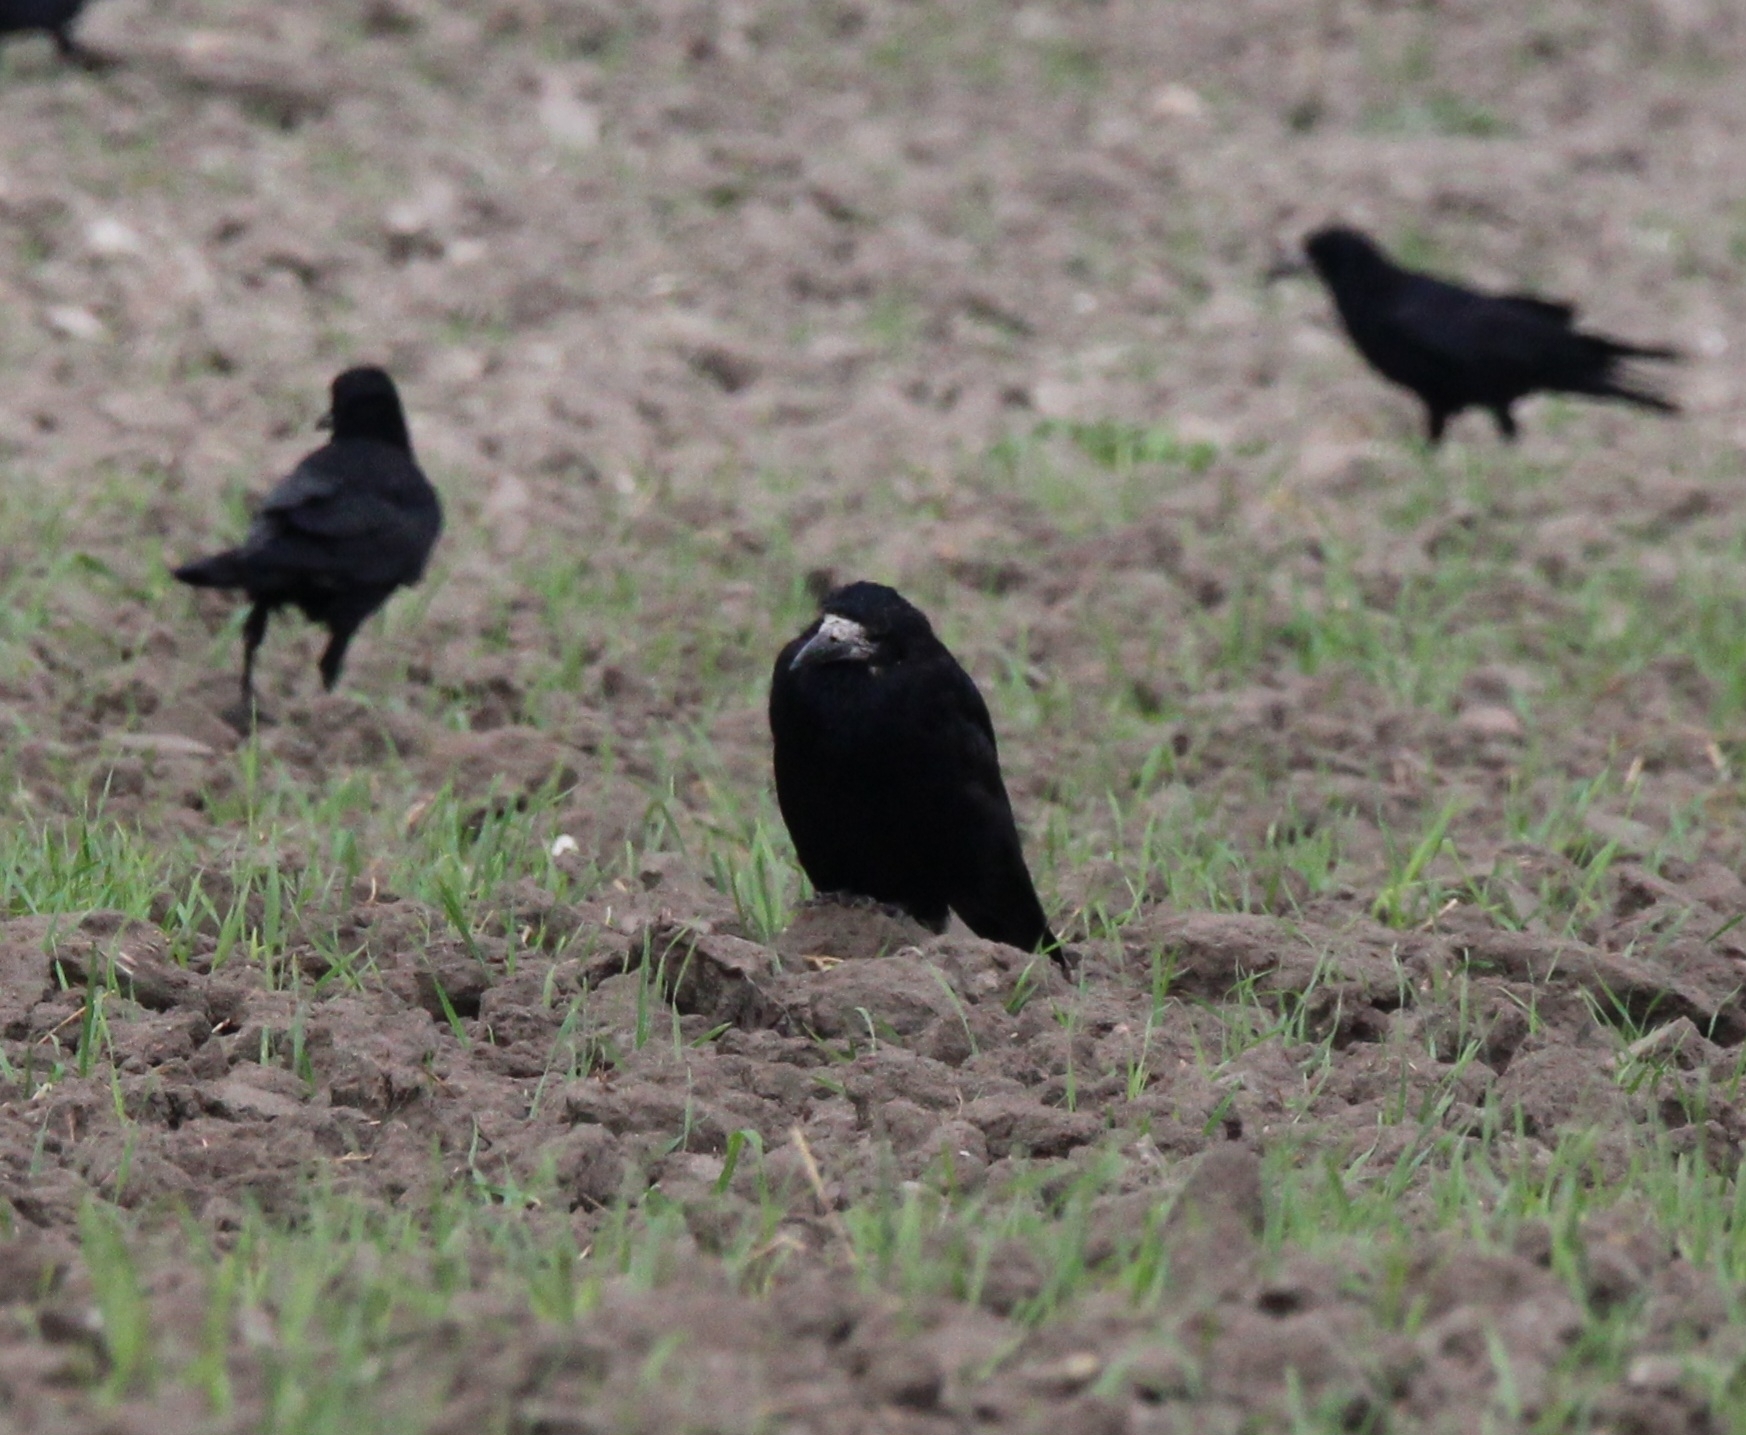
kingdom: Animalia
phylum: Chordata
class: Aves
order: Passeriformes
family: Corvidae
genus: Corvus
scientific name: Corvus frugilegus
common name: Rook
